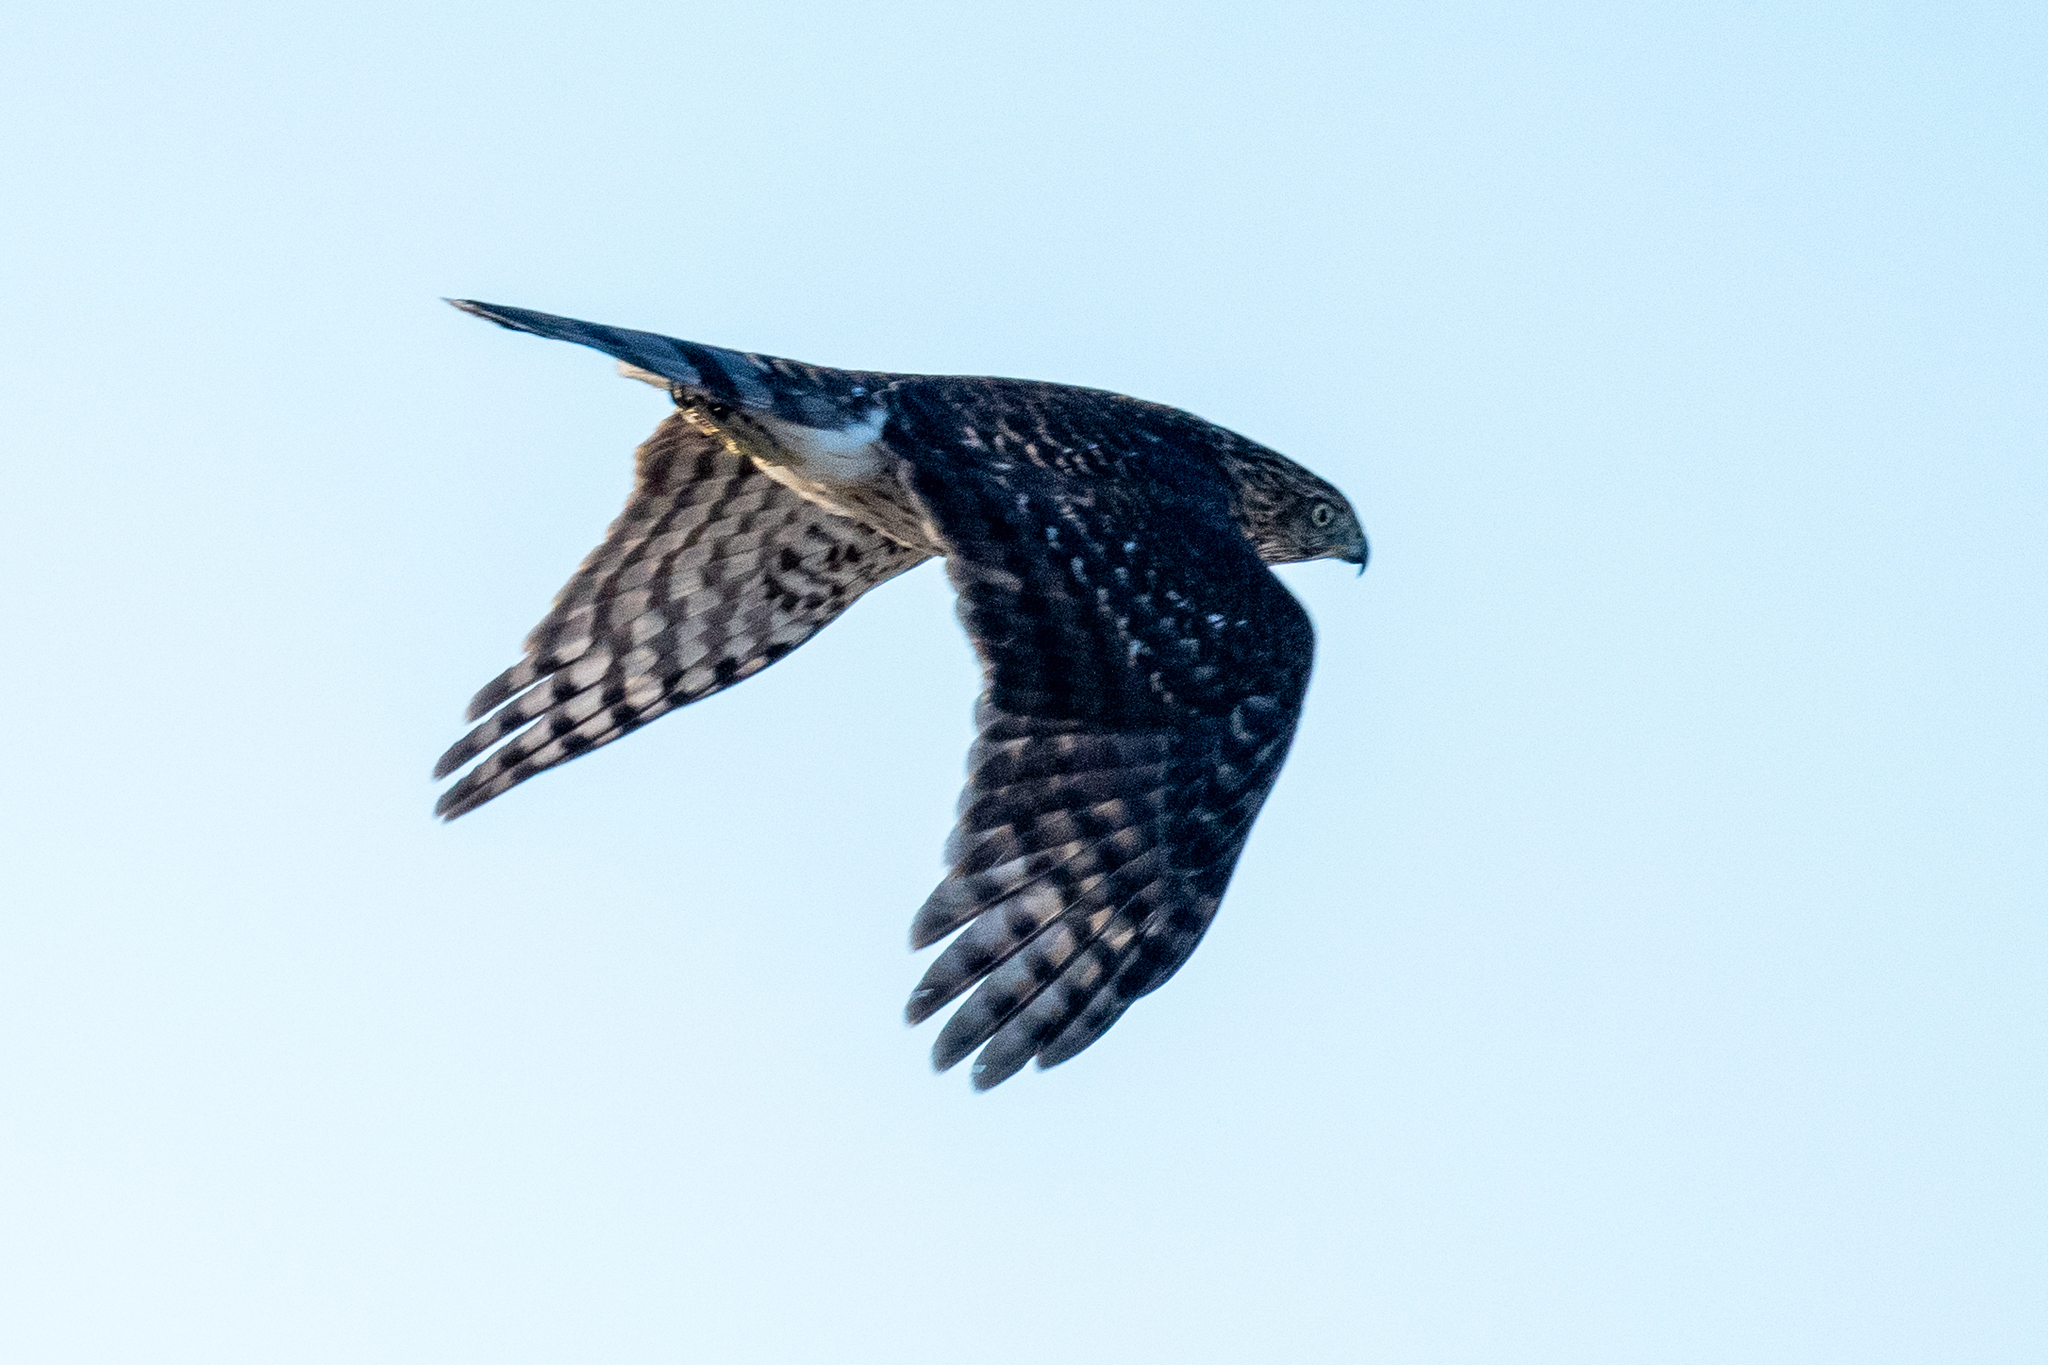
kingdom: Animalia
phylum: Chordata
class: Aves
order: Accipitriformes
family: Accipitridae
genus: Accipiter
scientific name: Accipiter cooperii
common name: Cooper's hawk
